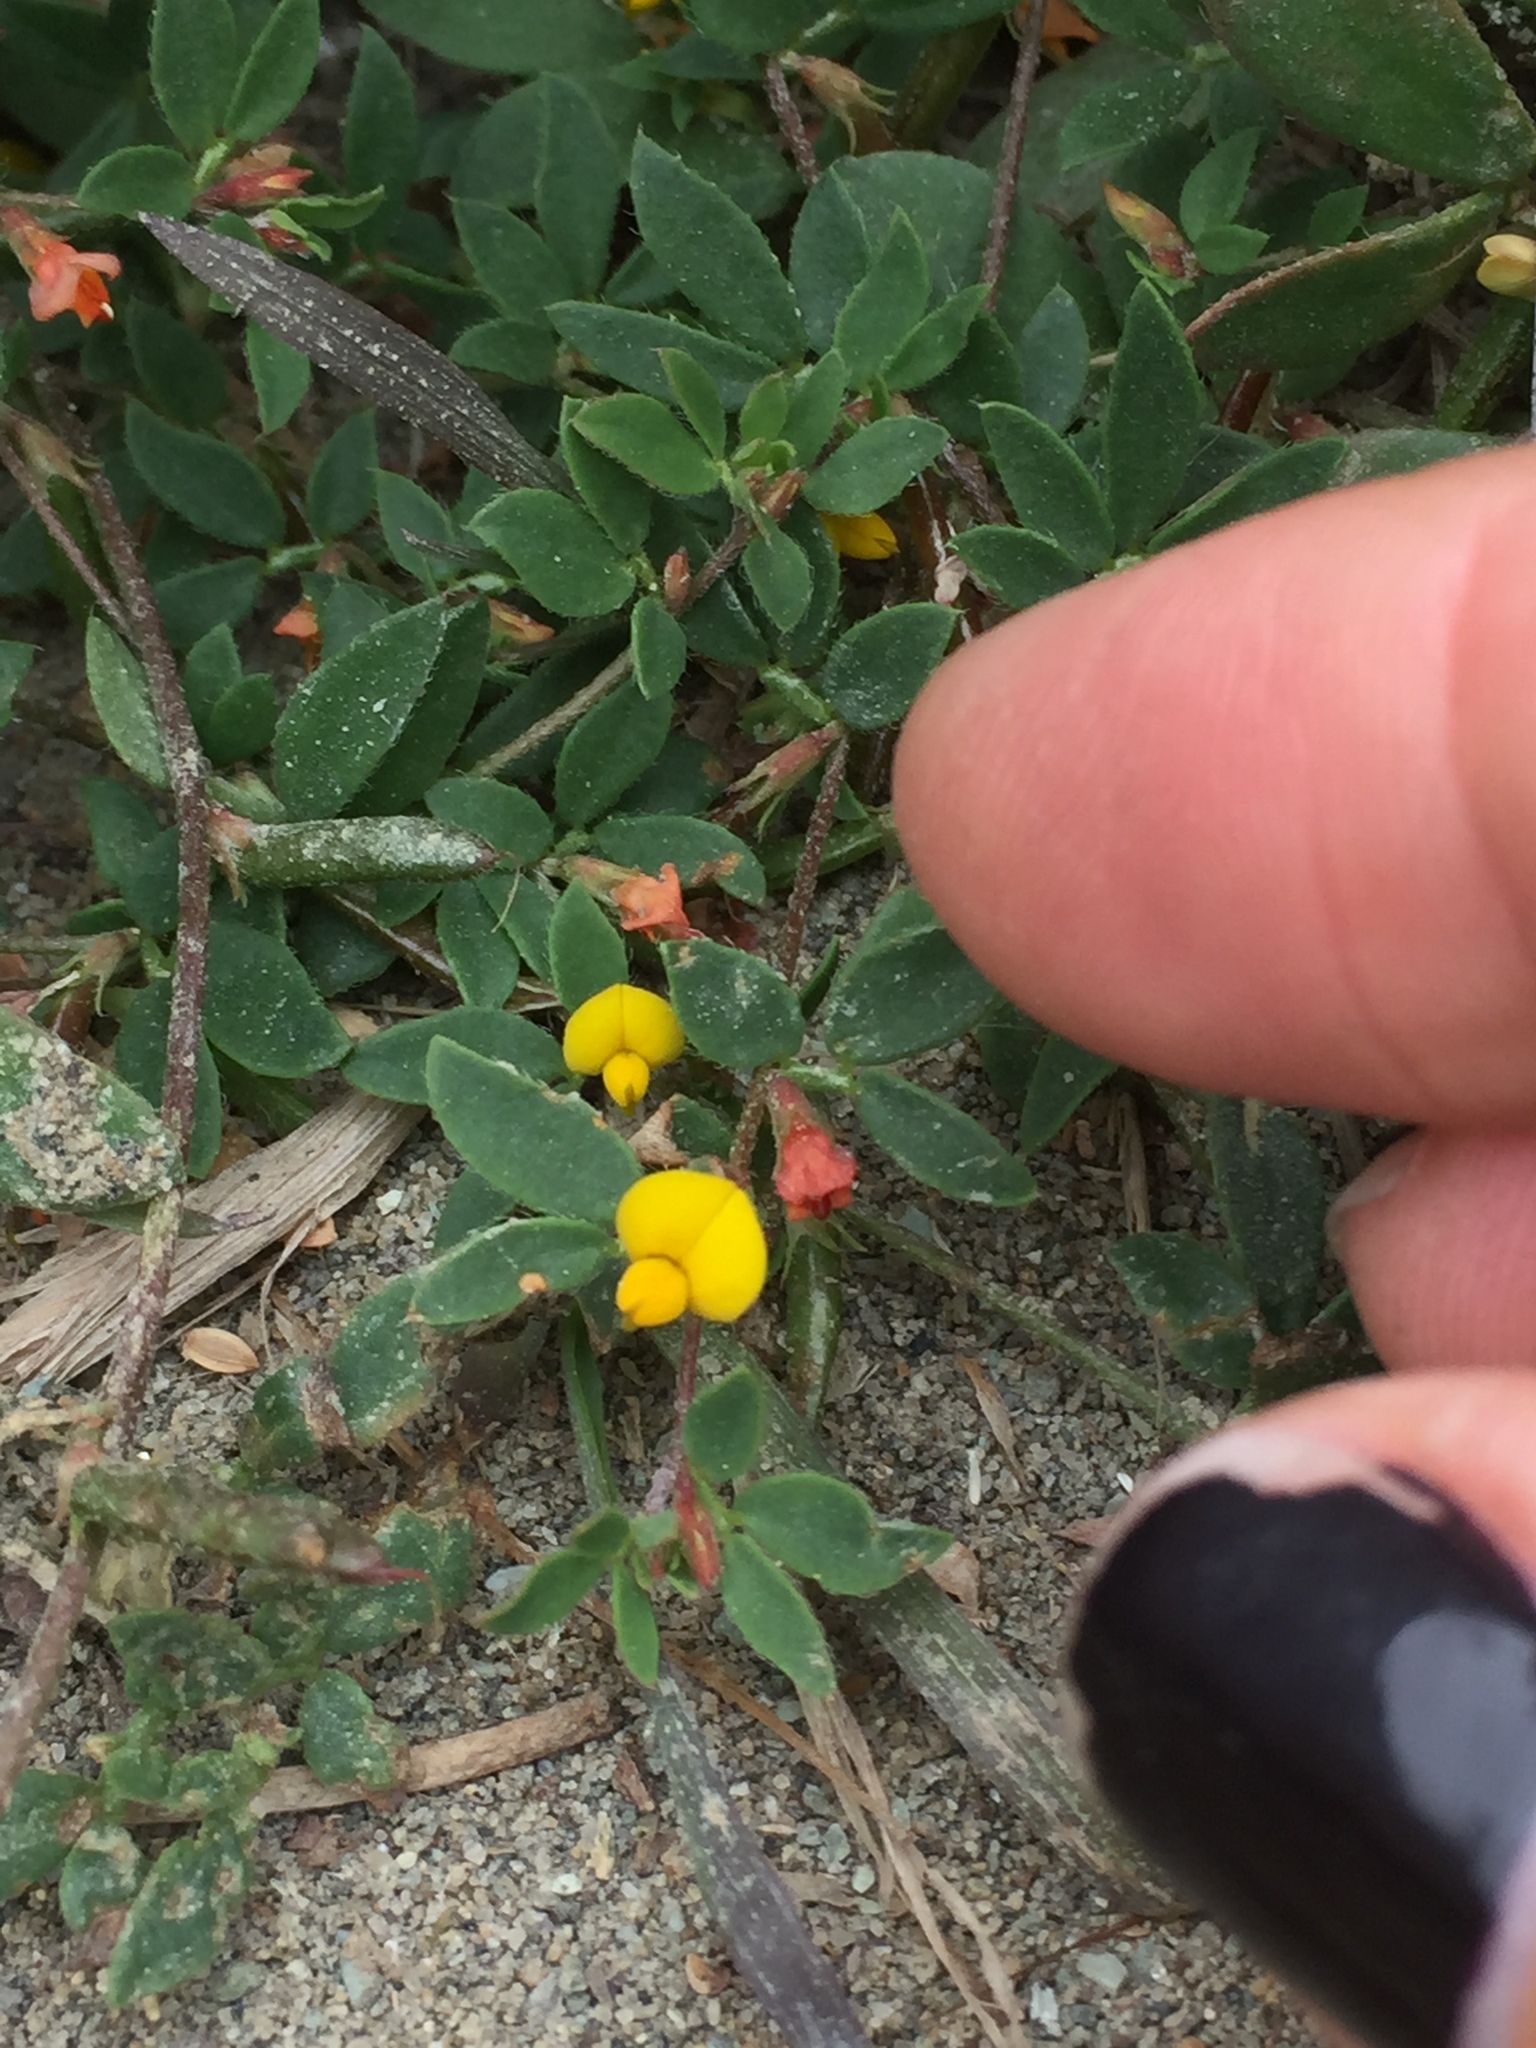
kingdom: Plantae
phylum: Tracheophyta
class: Magnoliopsida
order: Fabales
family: Fabaceae
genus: Acmispon
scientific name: Acmispon wrangelianus
